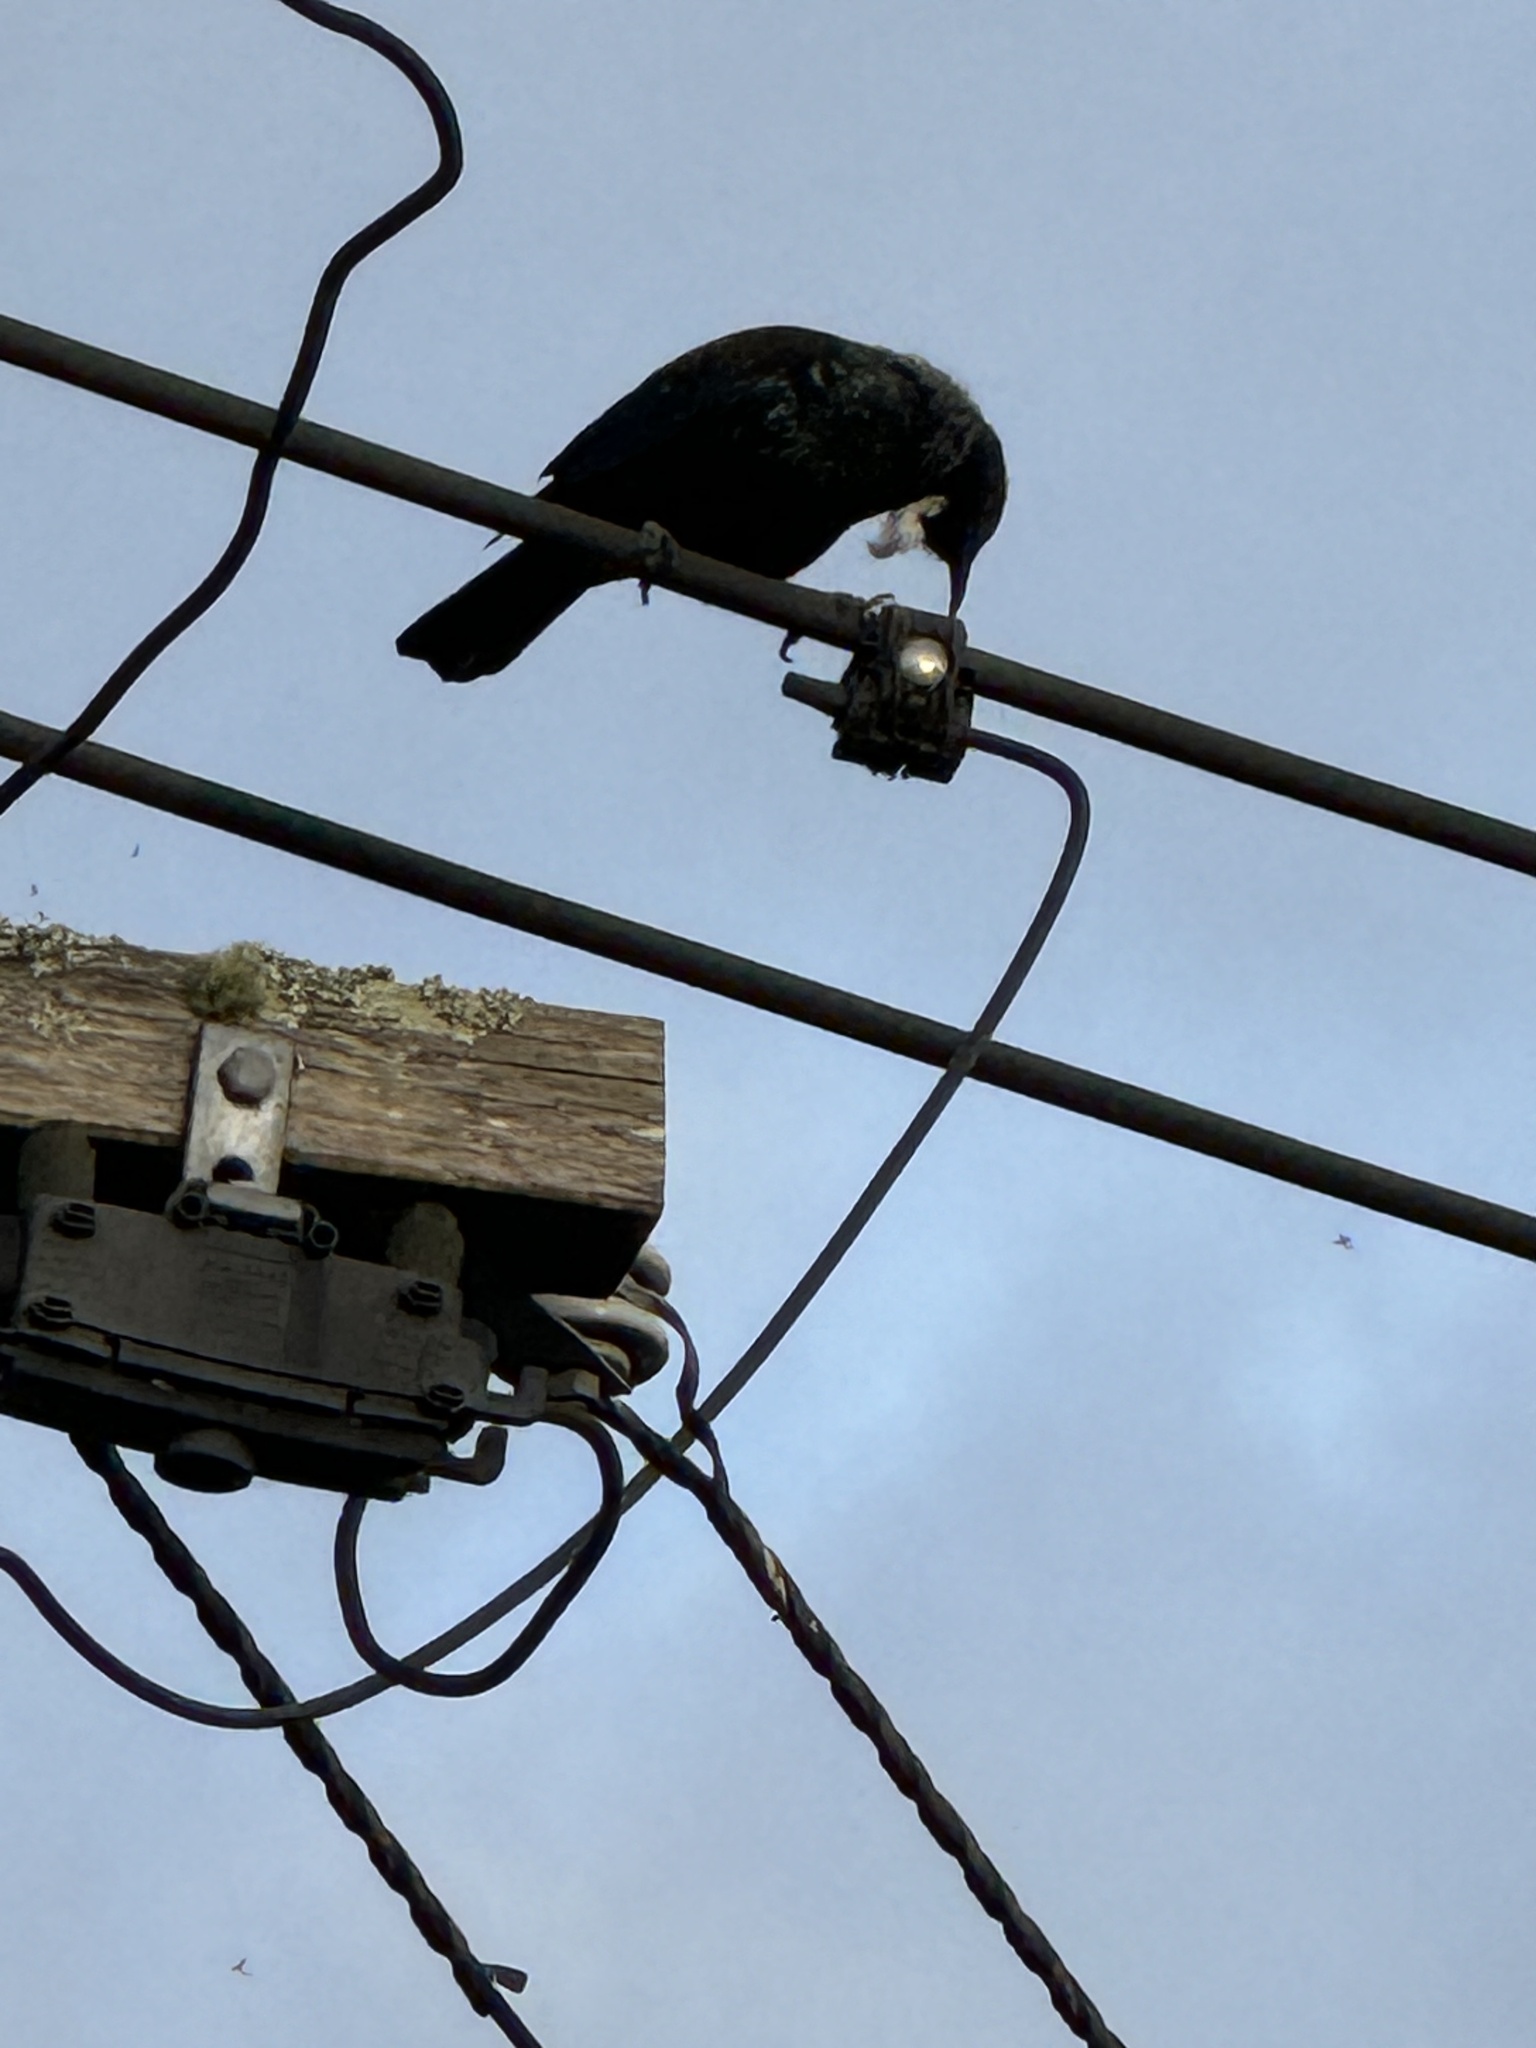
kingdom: Animalia
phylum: Chordata
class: Aves
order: Passeriformes
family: Meliphagidae
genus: Prosthemadera
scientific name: Prosthemadera novaeseelandiae
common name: Tui
